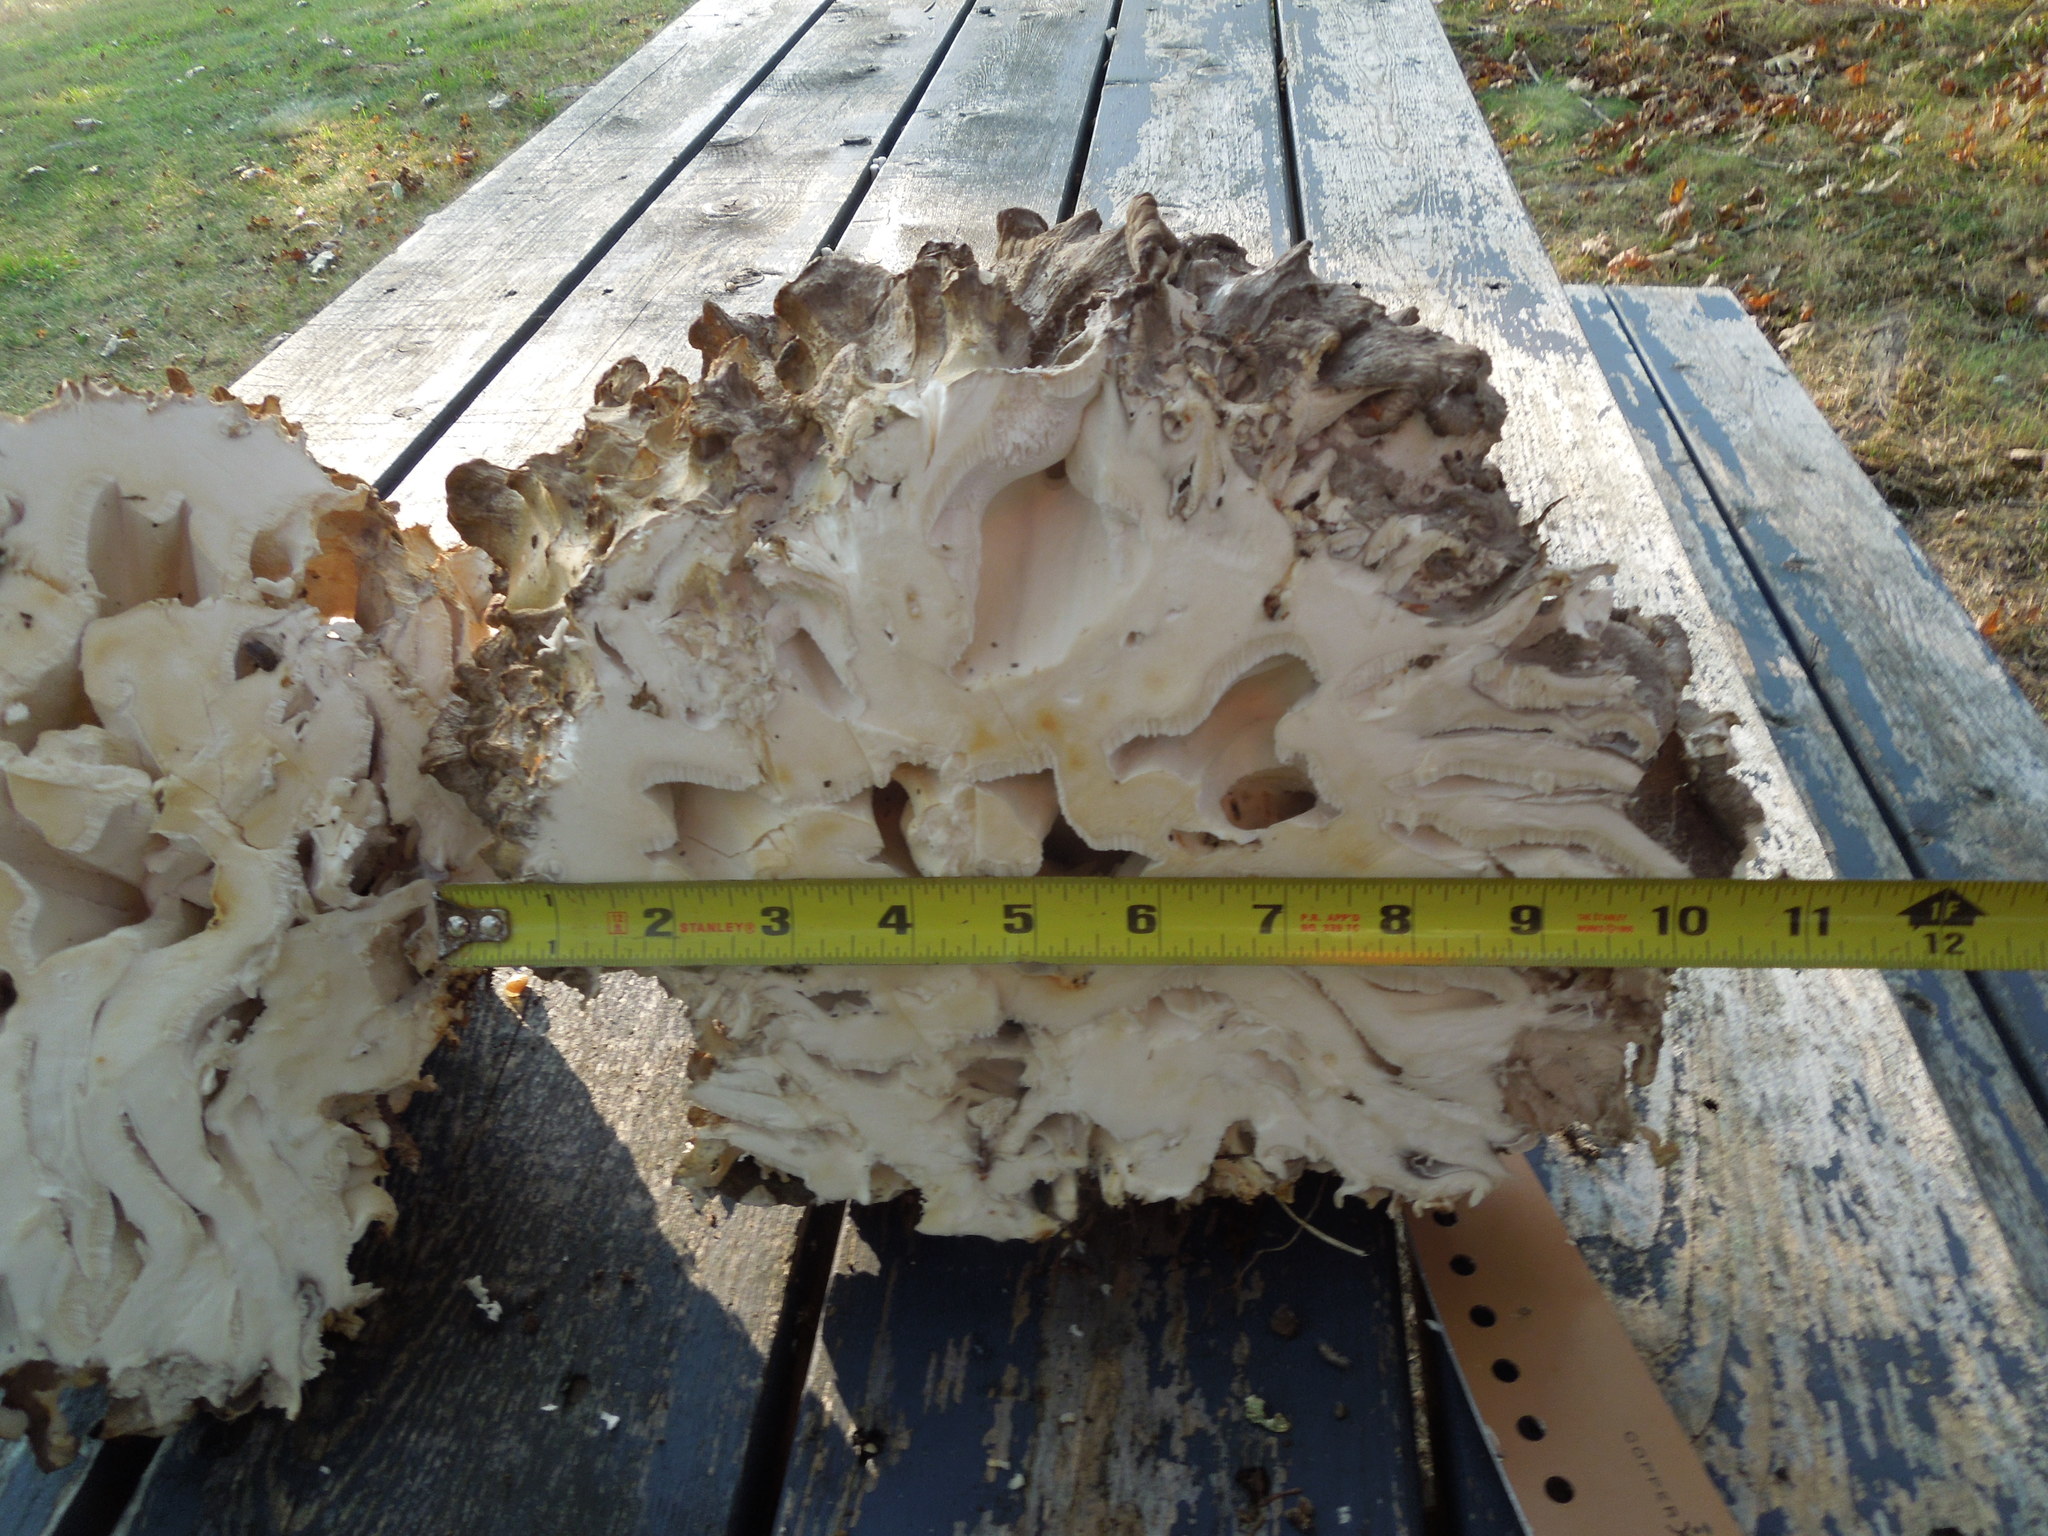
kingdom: Fungi
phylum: Basidiomycota
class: Agaricomycetes
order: Polyporales
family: Grifolaceae
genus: Grifola
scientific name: Grifola frondosa
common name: Hen of the woods
